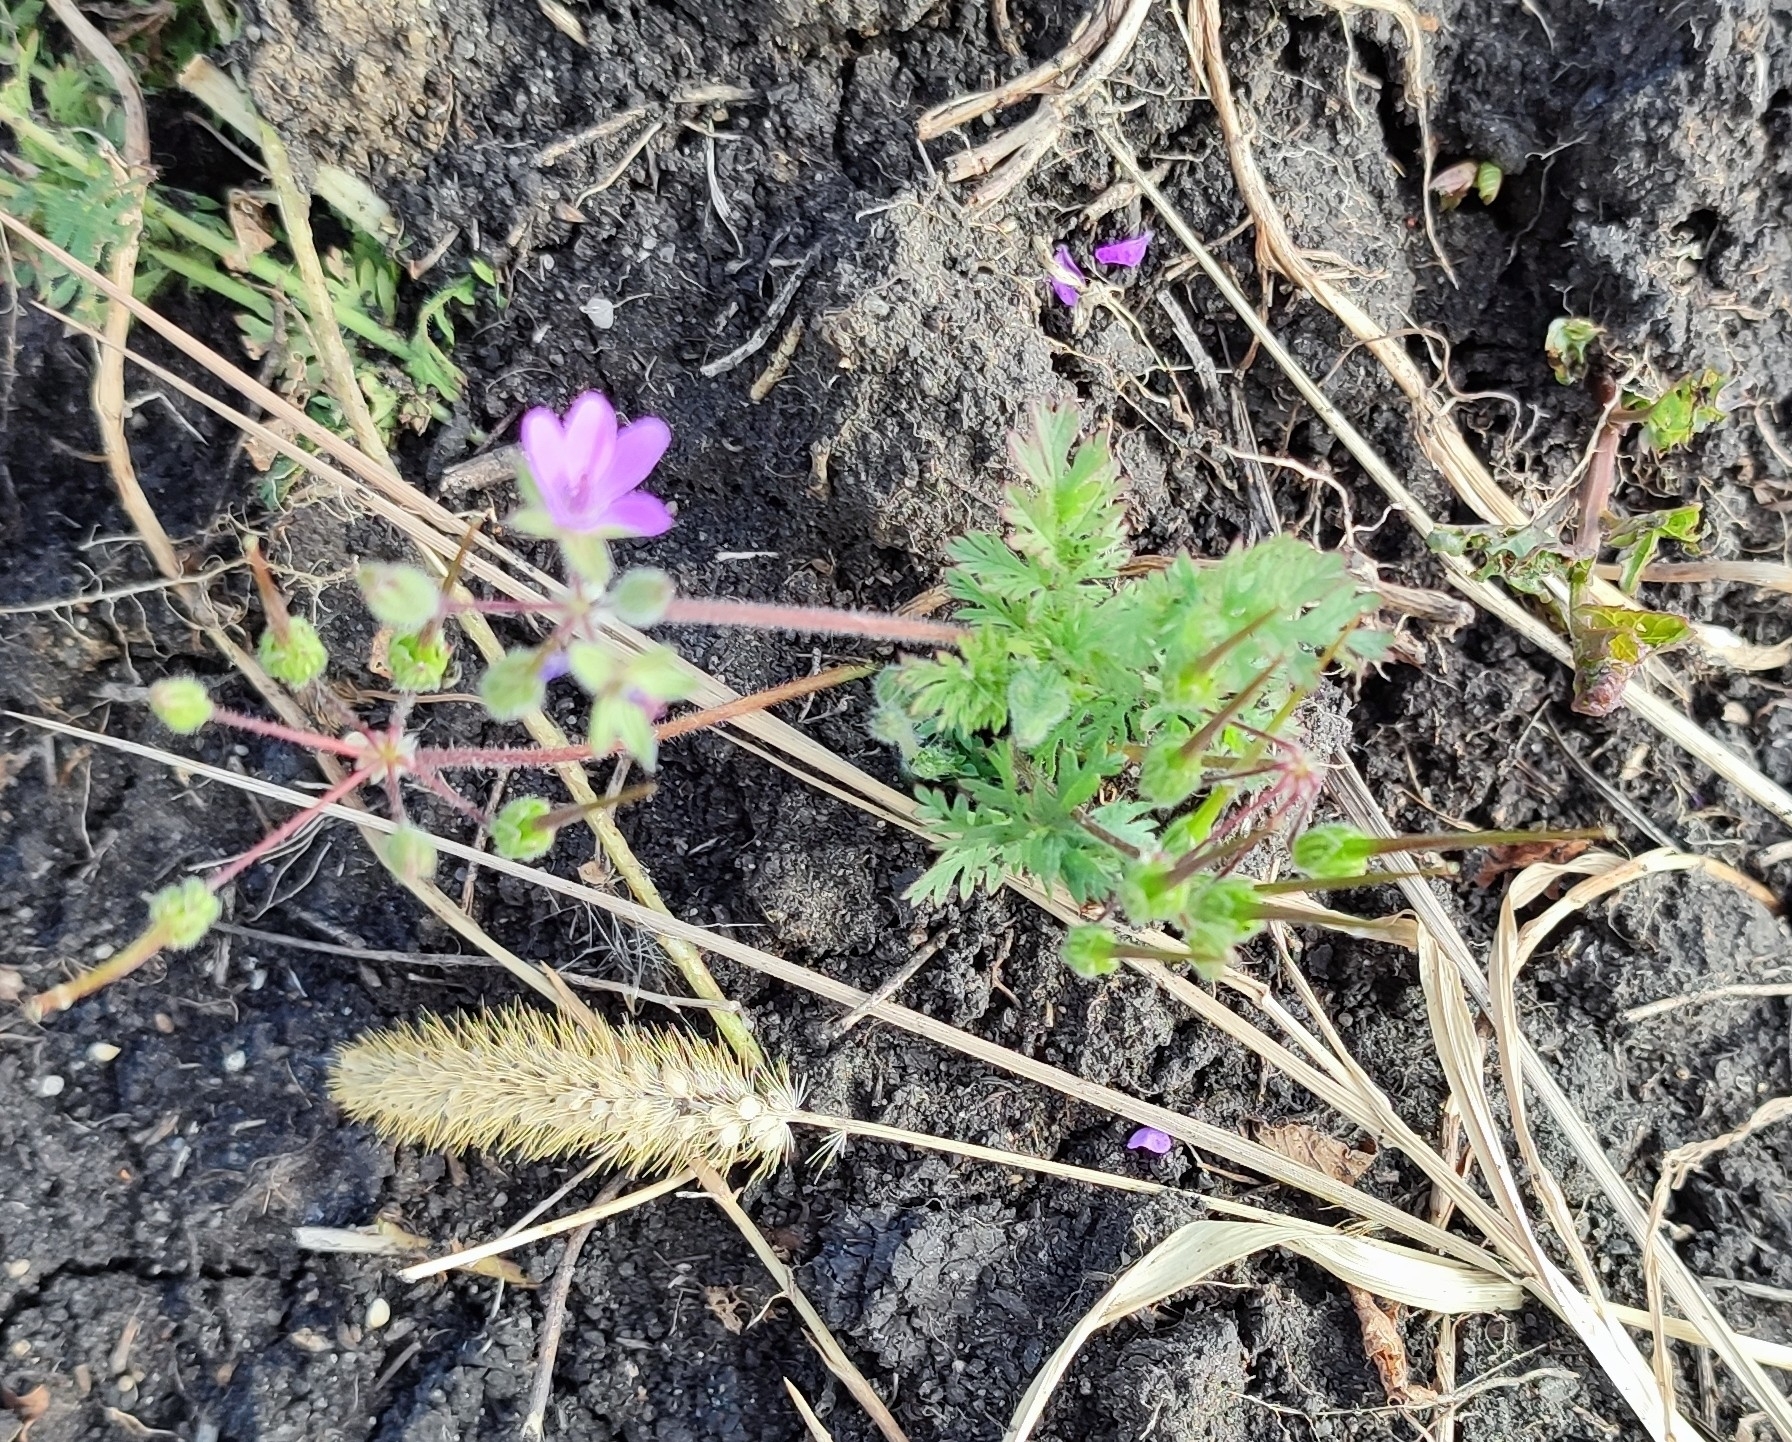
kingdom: Plantae
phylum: Tracheophyta
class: Magnoliopsida
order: Geraniales
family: Geraniaceae
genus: Erodium
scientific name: Erodium cicutarium
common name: Common stork's-bill
